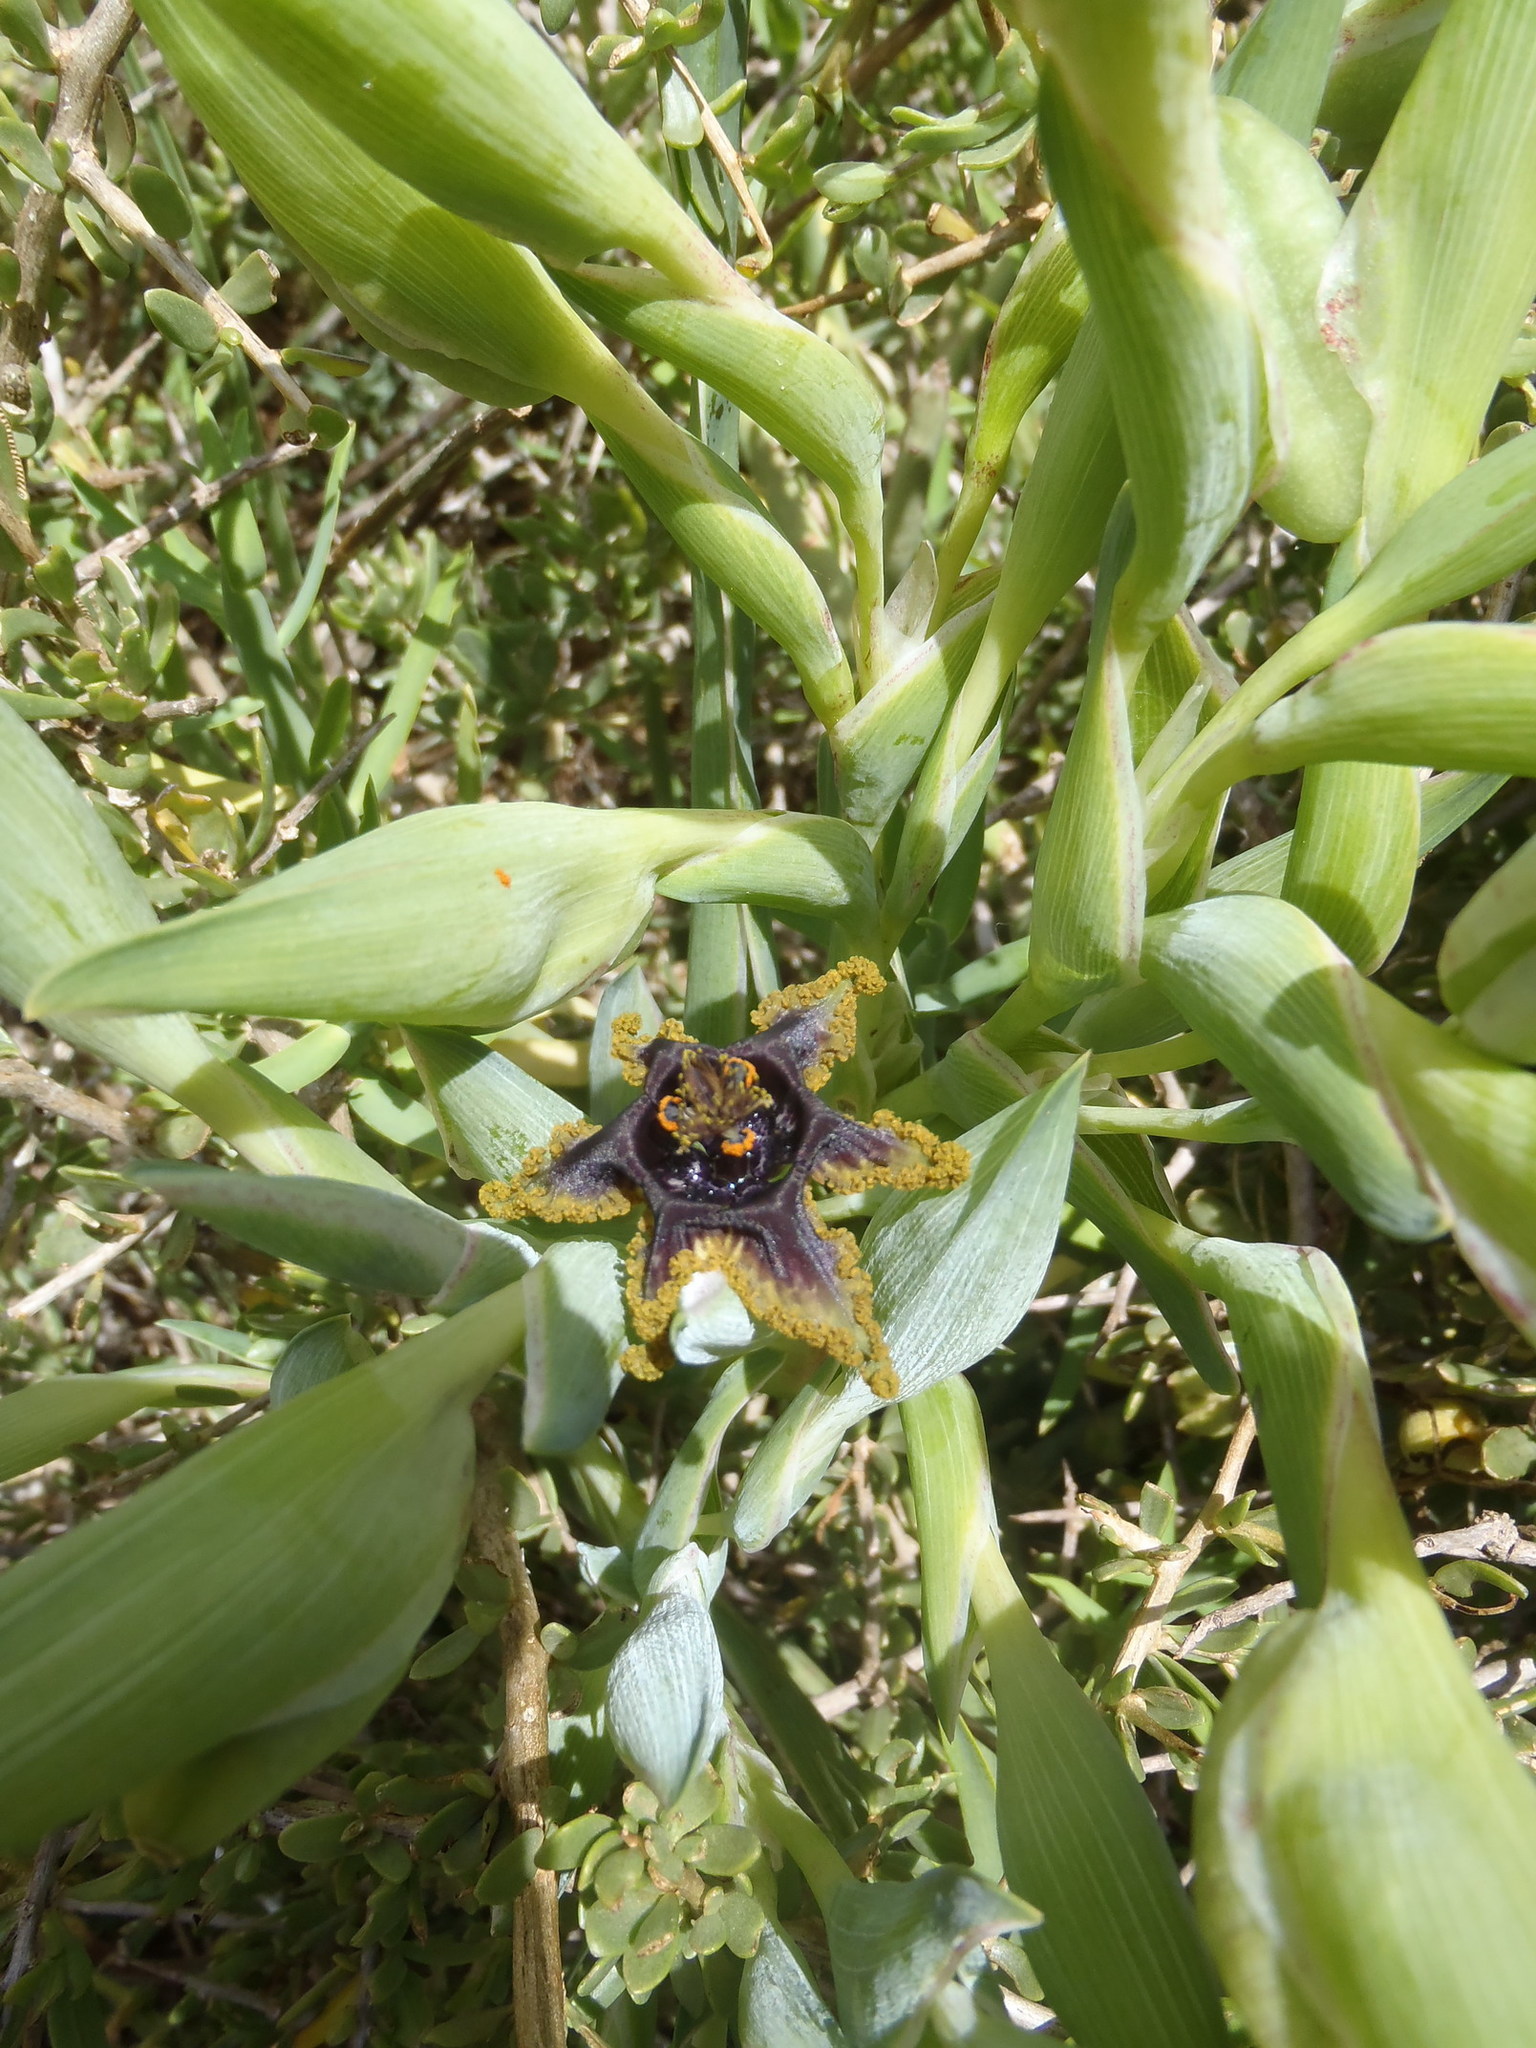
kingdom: Plantae
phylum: Tracheophyta
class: Liliopsida
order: Asparagales
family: Iridaceae
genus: Ferraria
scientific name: Ferraria crispa
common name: Black-flag
